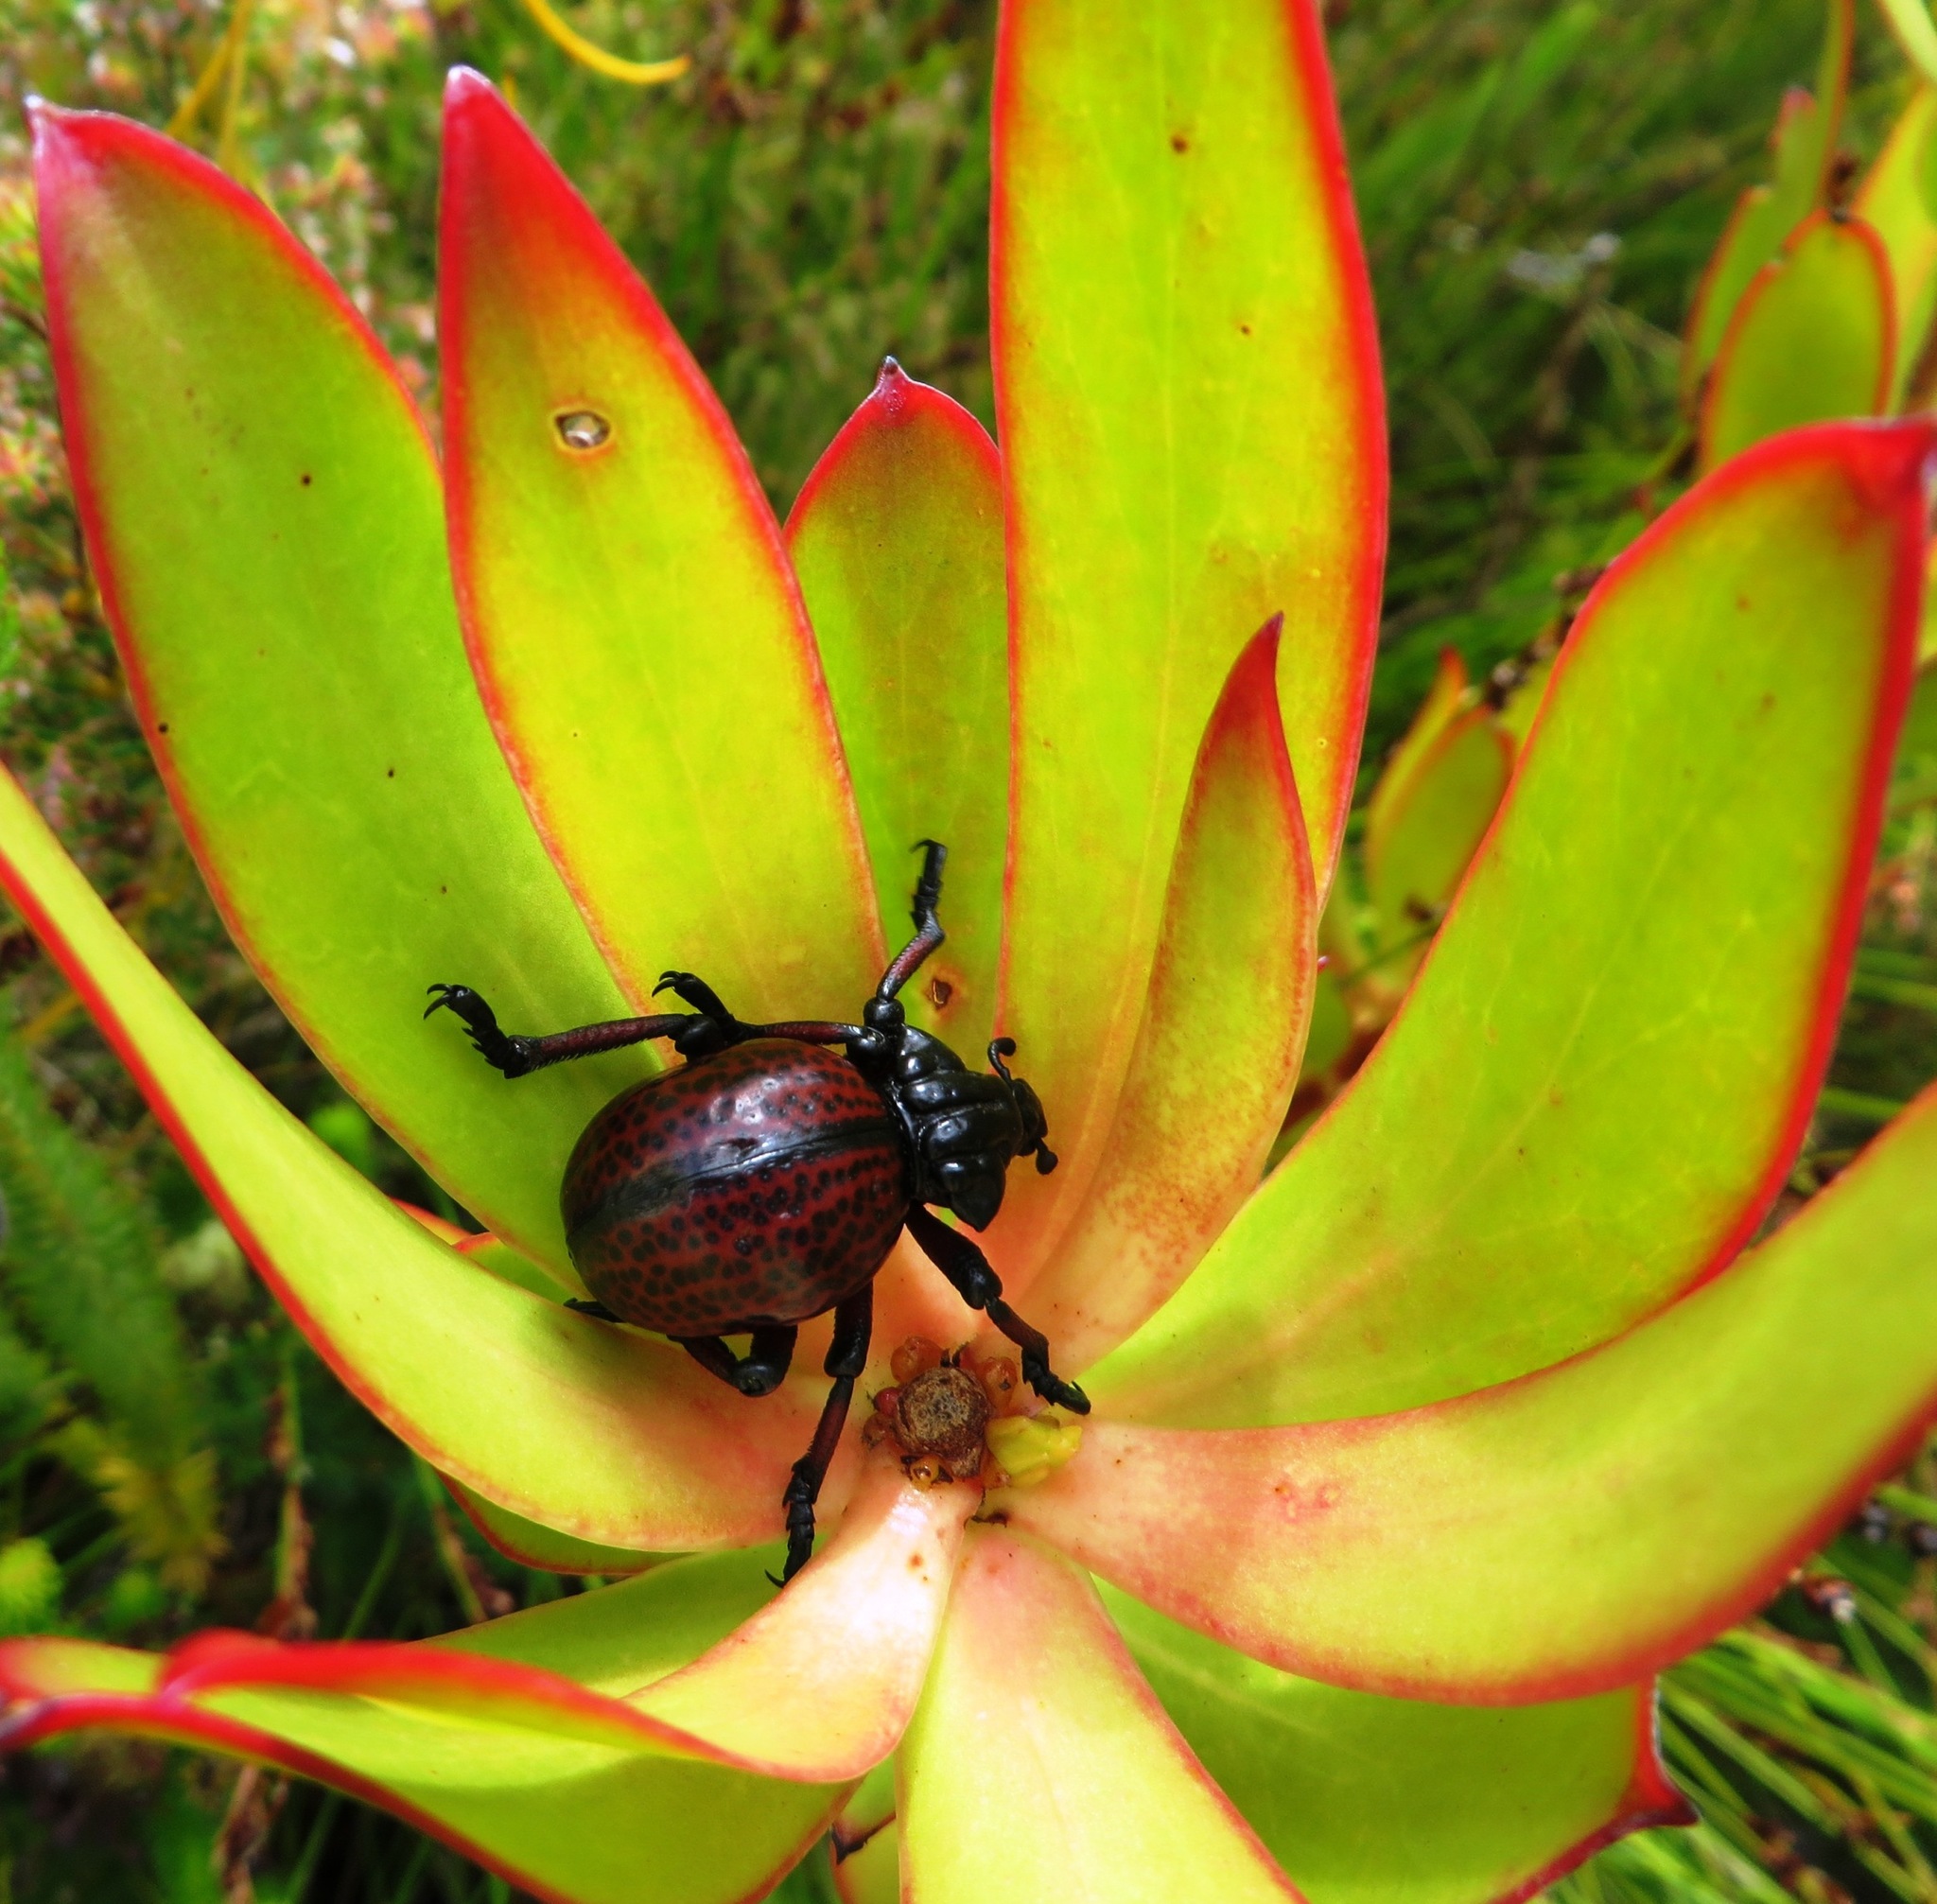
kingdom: Animalia
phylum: Arthropoda
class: Insecta
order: Coleoptera
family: Brachyceridae
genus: Brachycerus
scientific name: Brachycerus obesus
